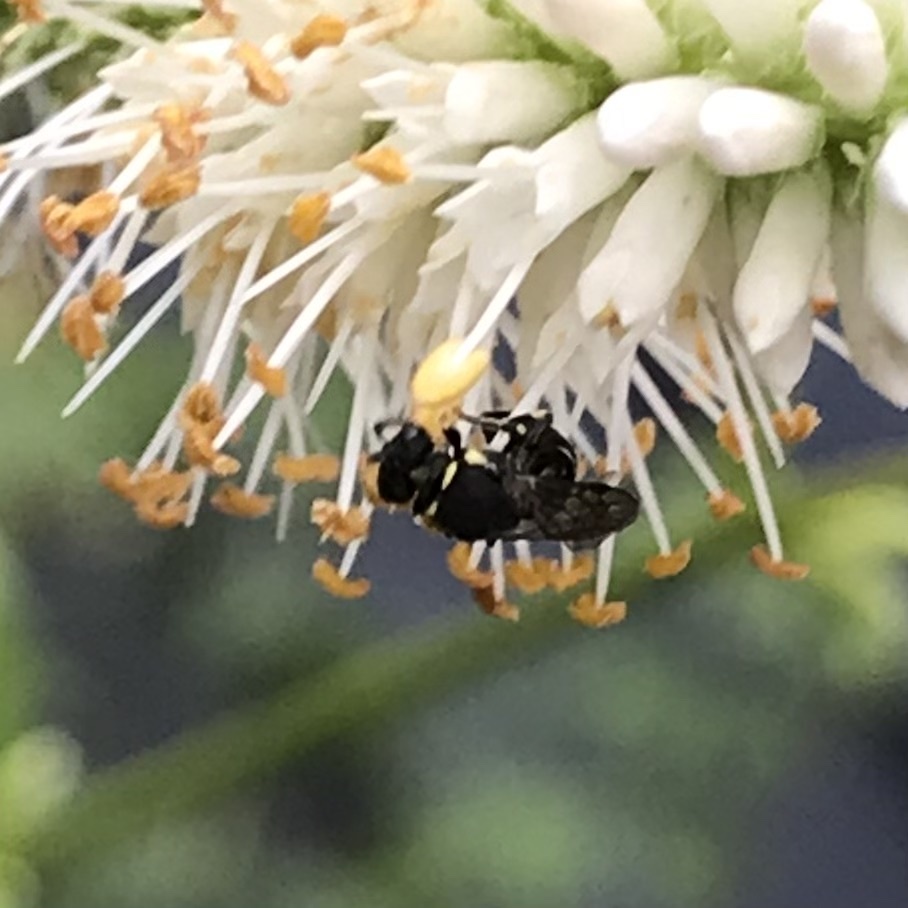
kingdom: Animalia
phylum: Arthropoda
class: Insecta
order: Hymenoptera
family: Colletidae
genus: Hylaeus
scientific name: Hylaeus modestus
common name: Yellow-faced bee
